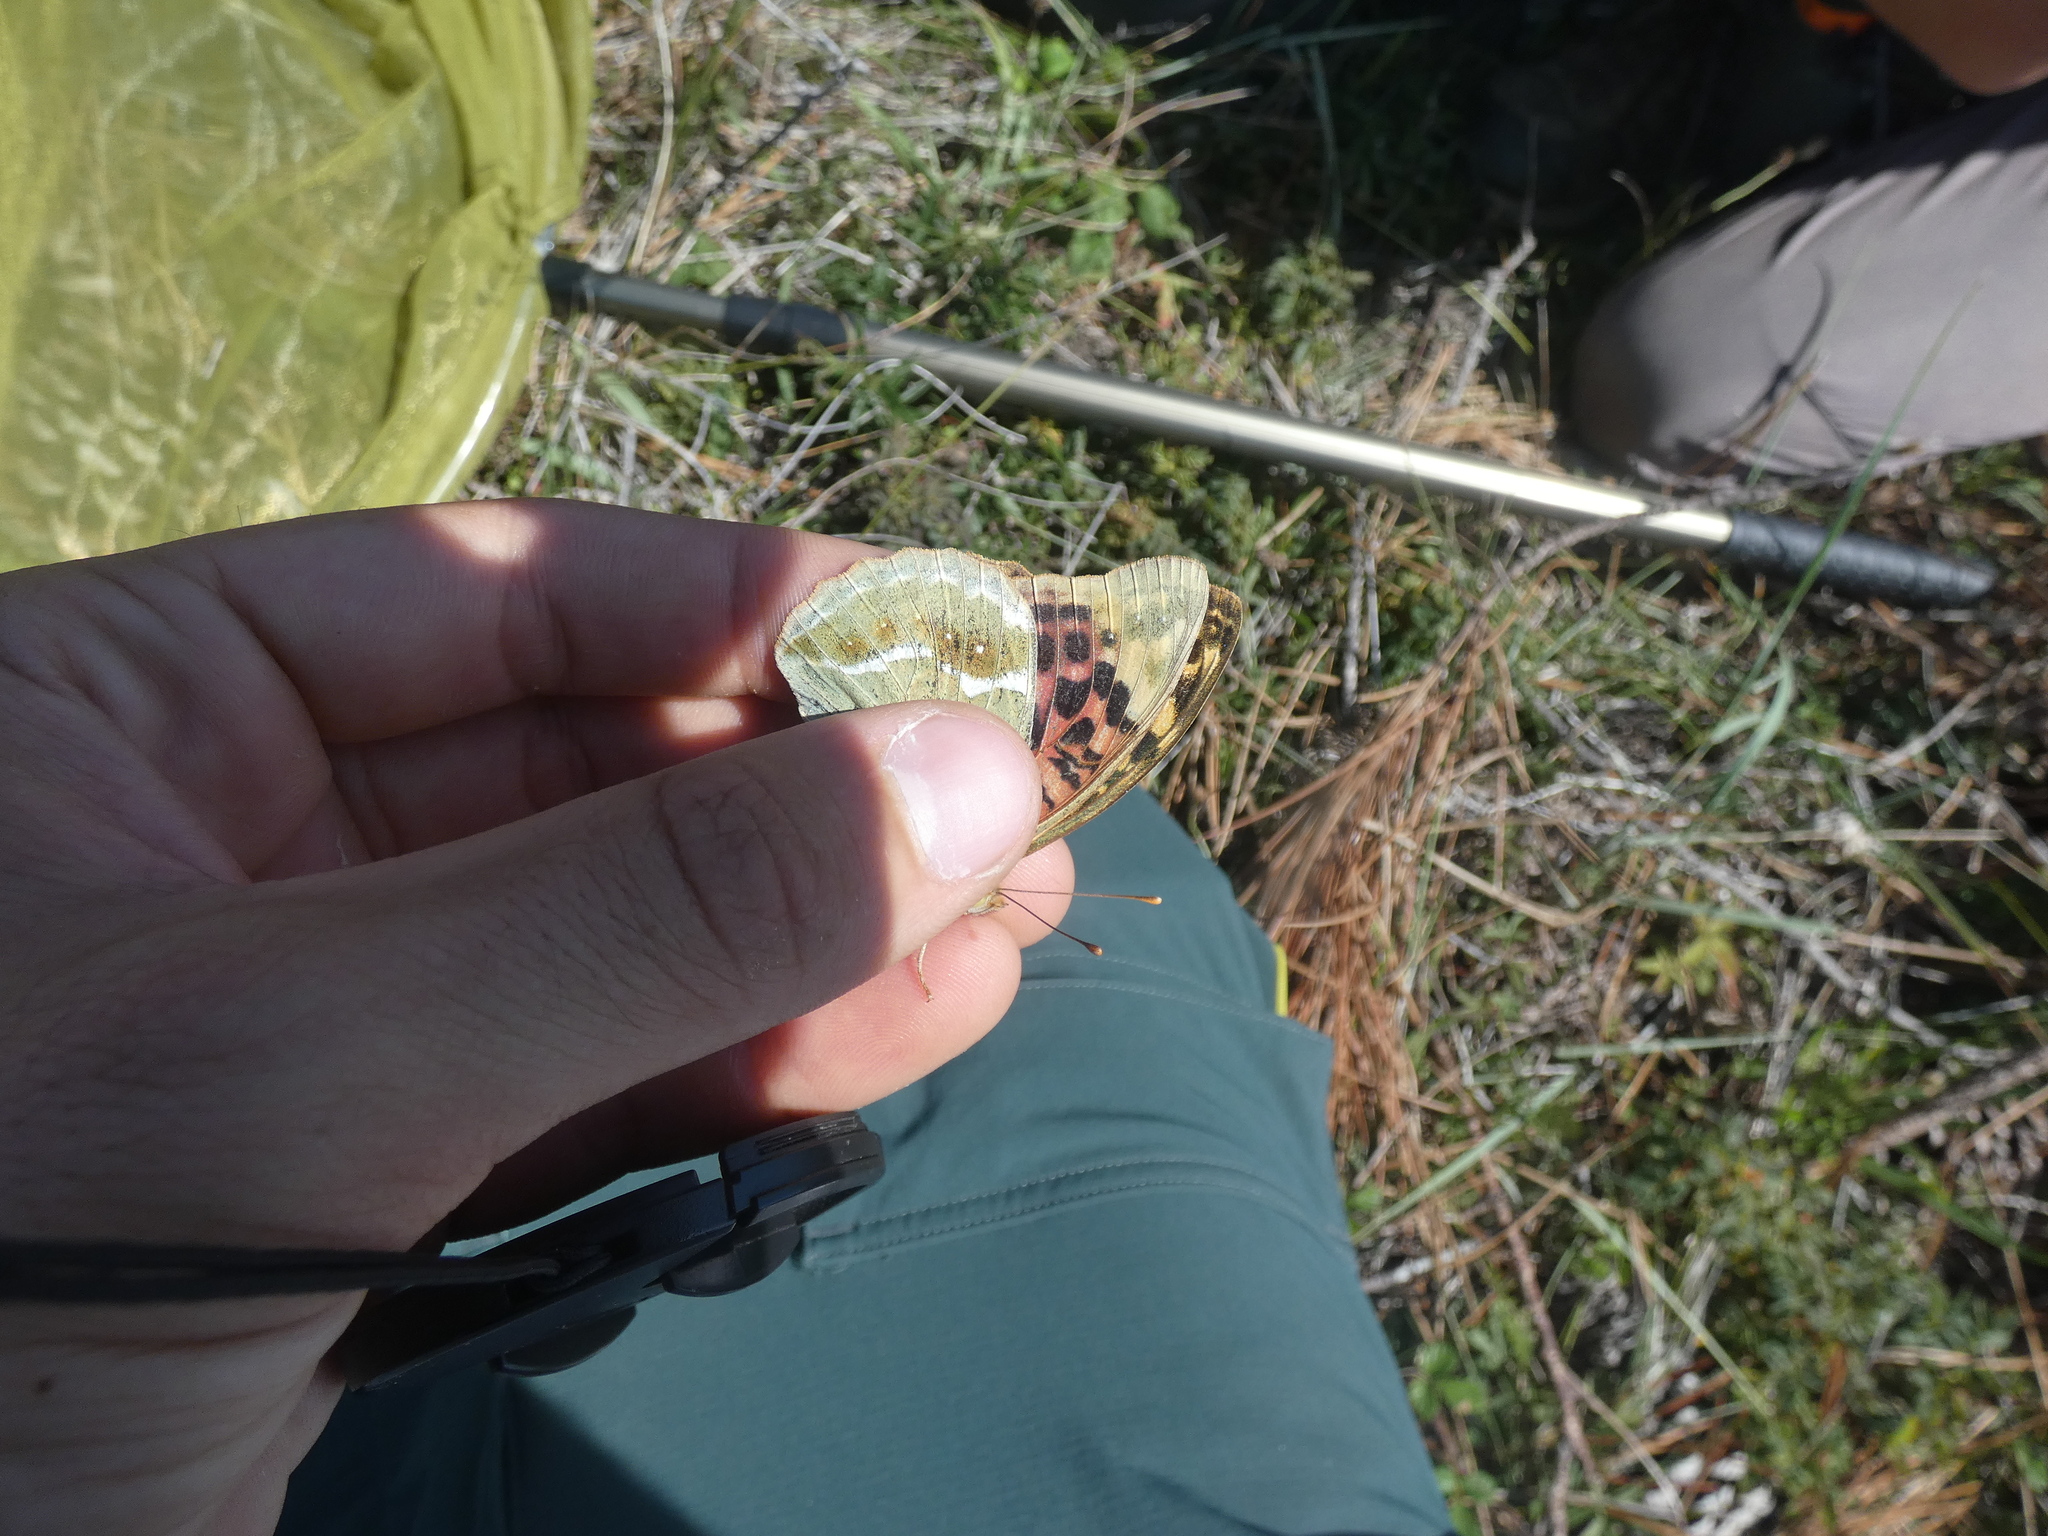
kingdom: Animalia
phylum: Arthropoda
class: Insecta
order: Lepidoptera
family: Nymphalidae
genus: Damora
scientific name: Damora pandora
